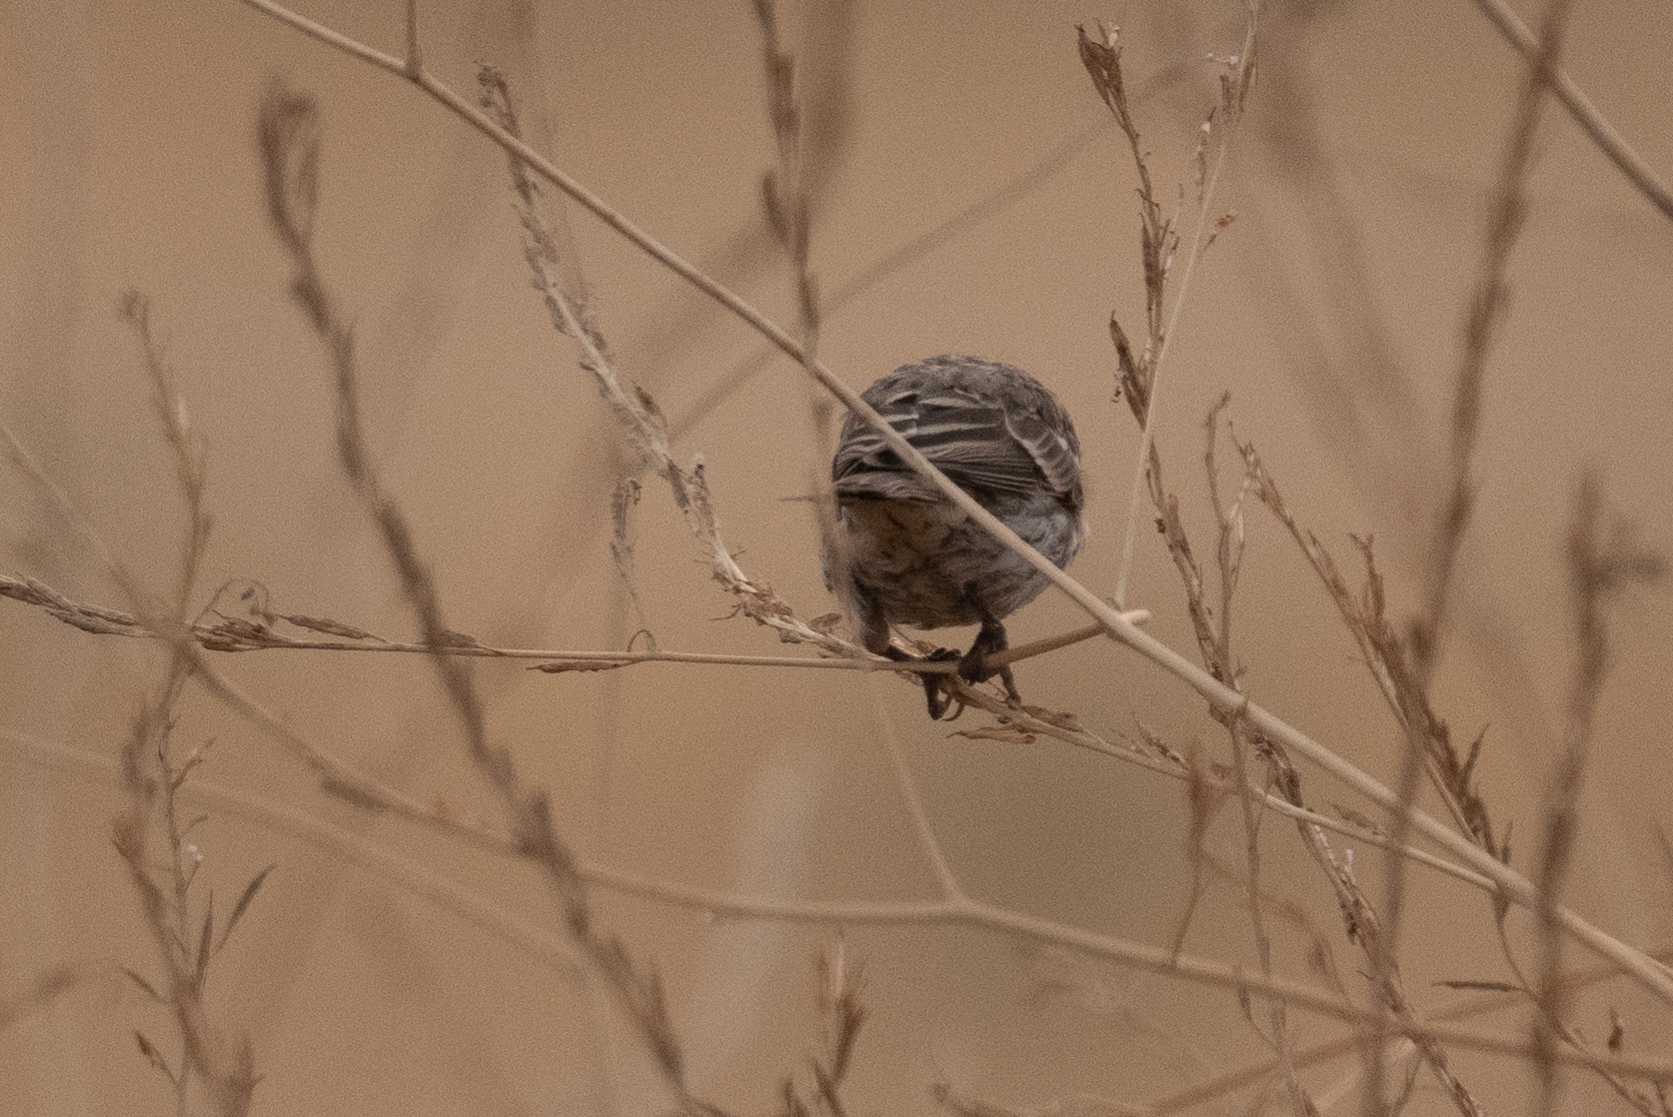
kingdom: Animalia
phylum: Chordata
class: Aves
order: Passeriformes
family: Fringillidae
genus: Haemorhous
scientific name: Haemorhous mexicanus
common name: House finch
